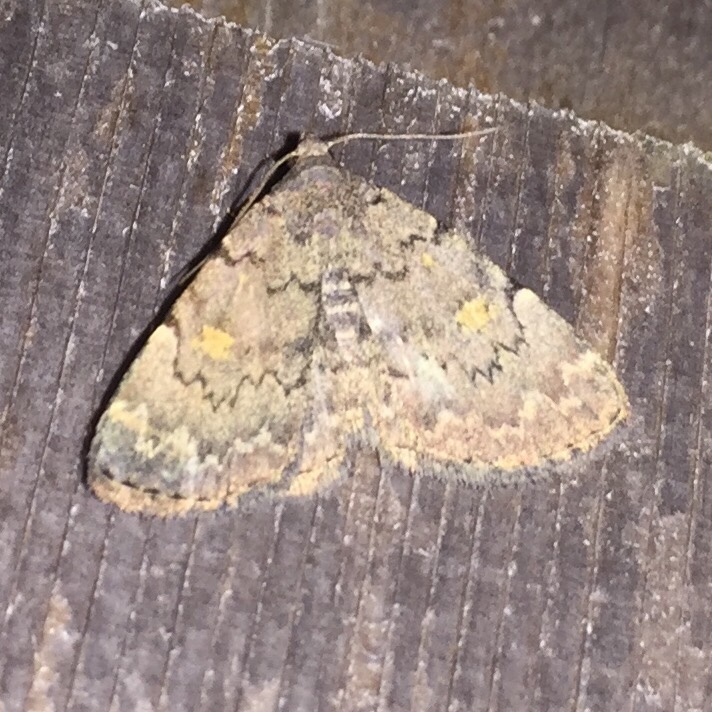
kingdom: Animalia
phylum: Arthropoda
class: Insecta
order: Lepidoptera
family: Erebidae
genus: Idia
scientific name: Idia aemula
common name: Common idia moth
